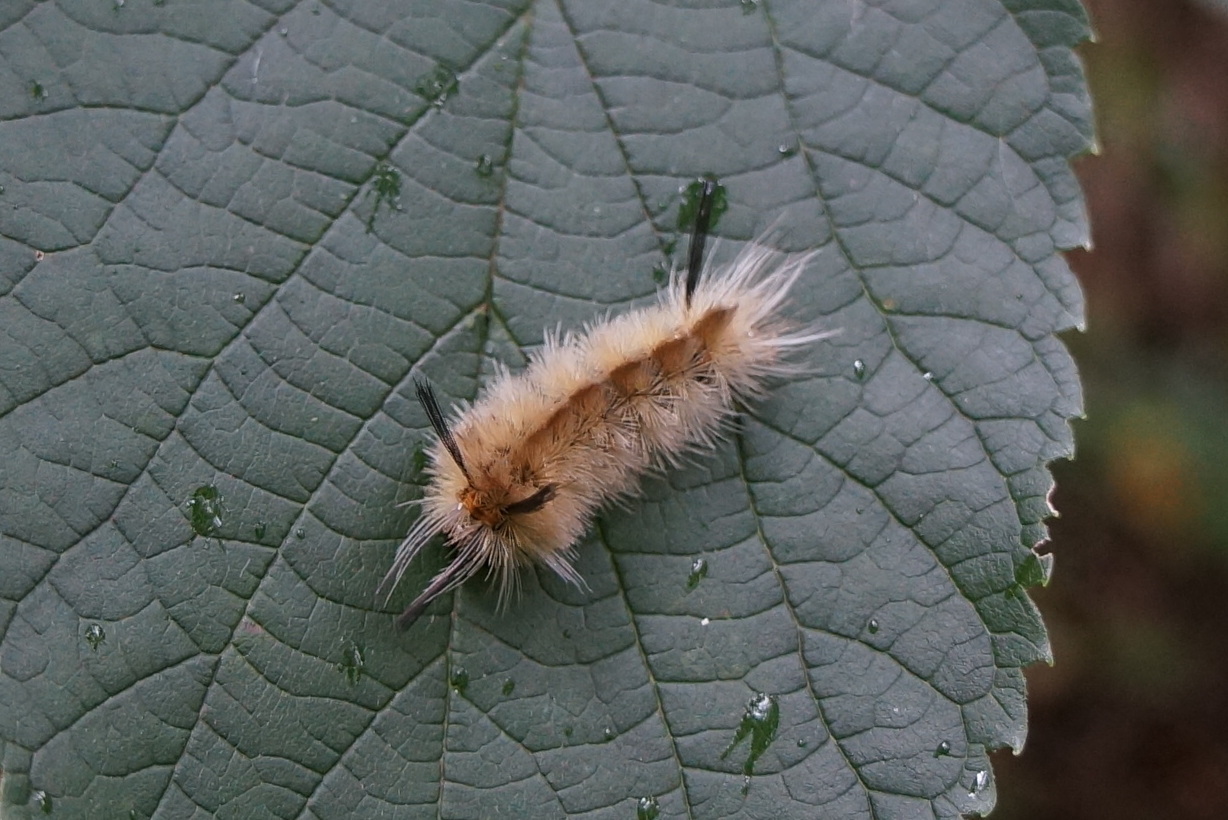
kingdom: Animalia
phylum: Arthropoda
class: Insecta
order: Lepidoptera
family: Erebidae
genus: Halysidota
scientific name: Halysidota tessellaris
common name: Banded tussock moth
